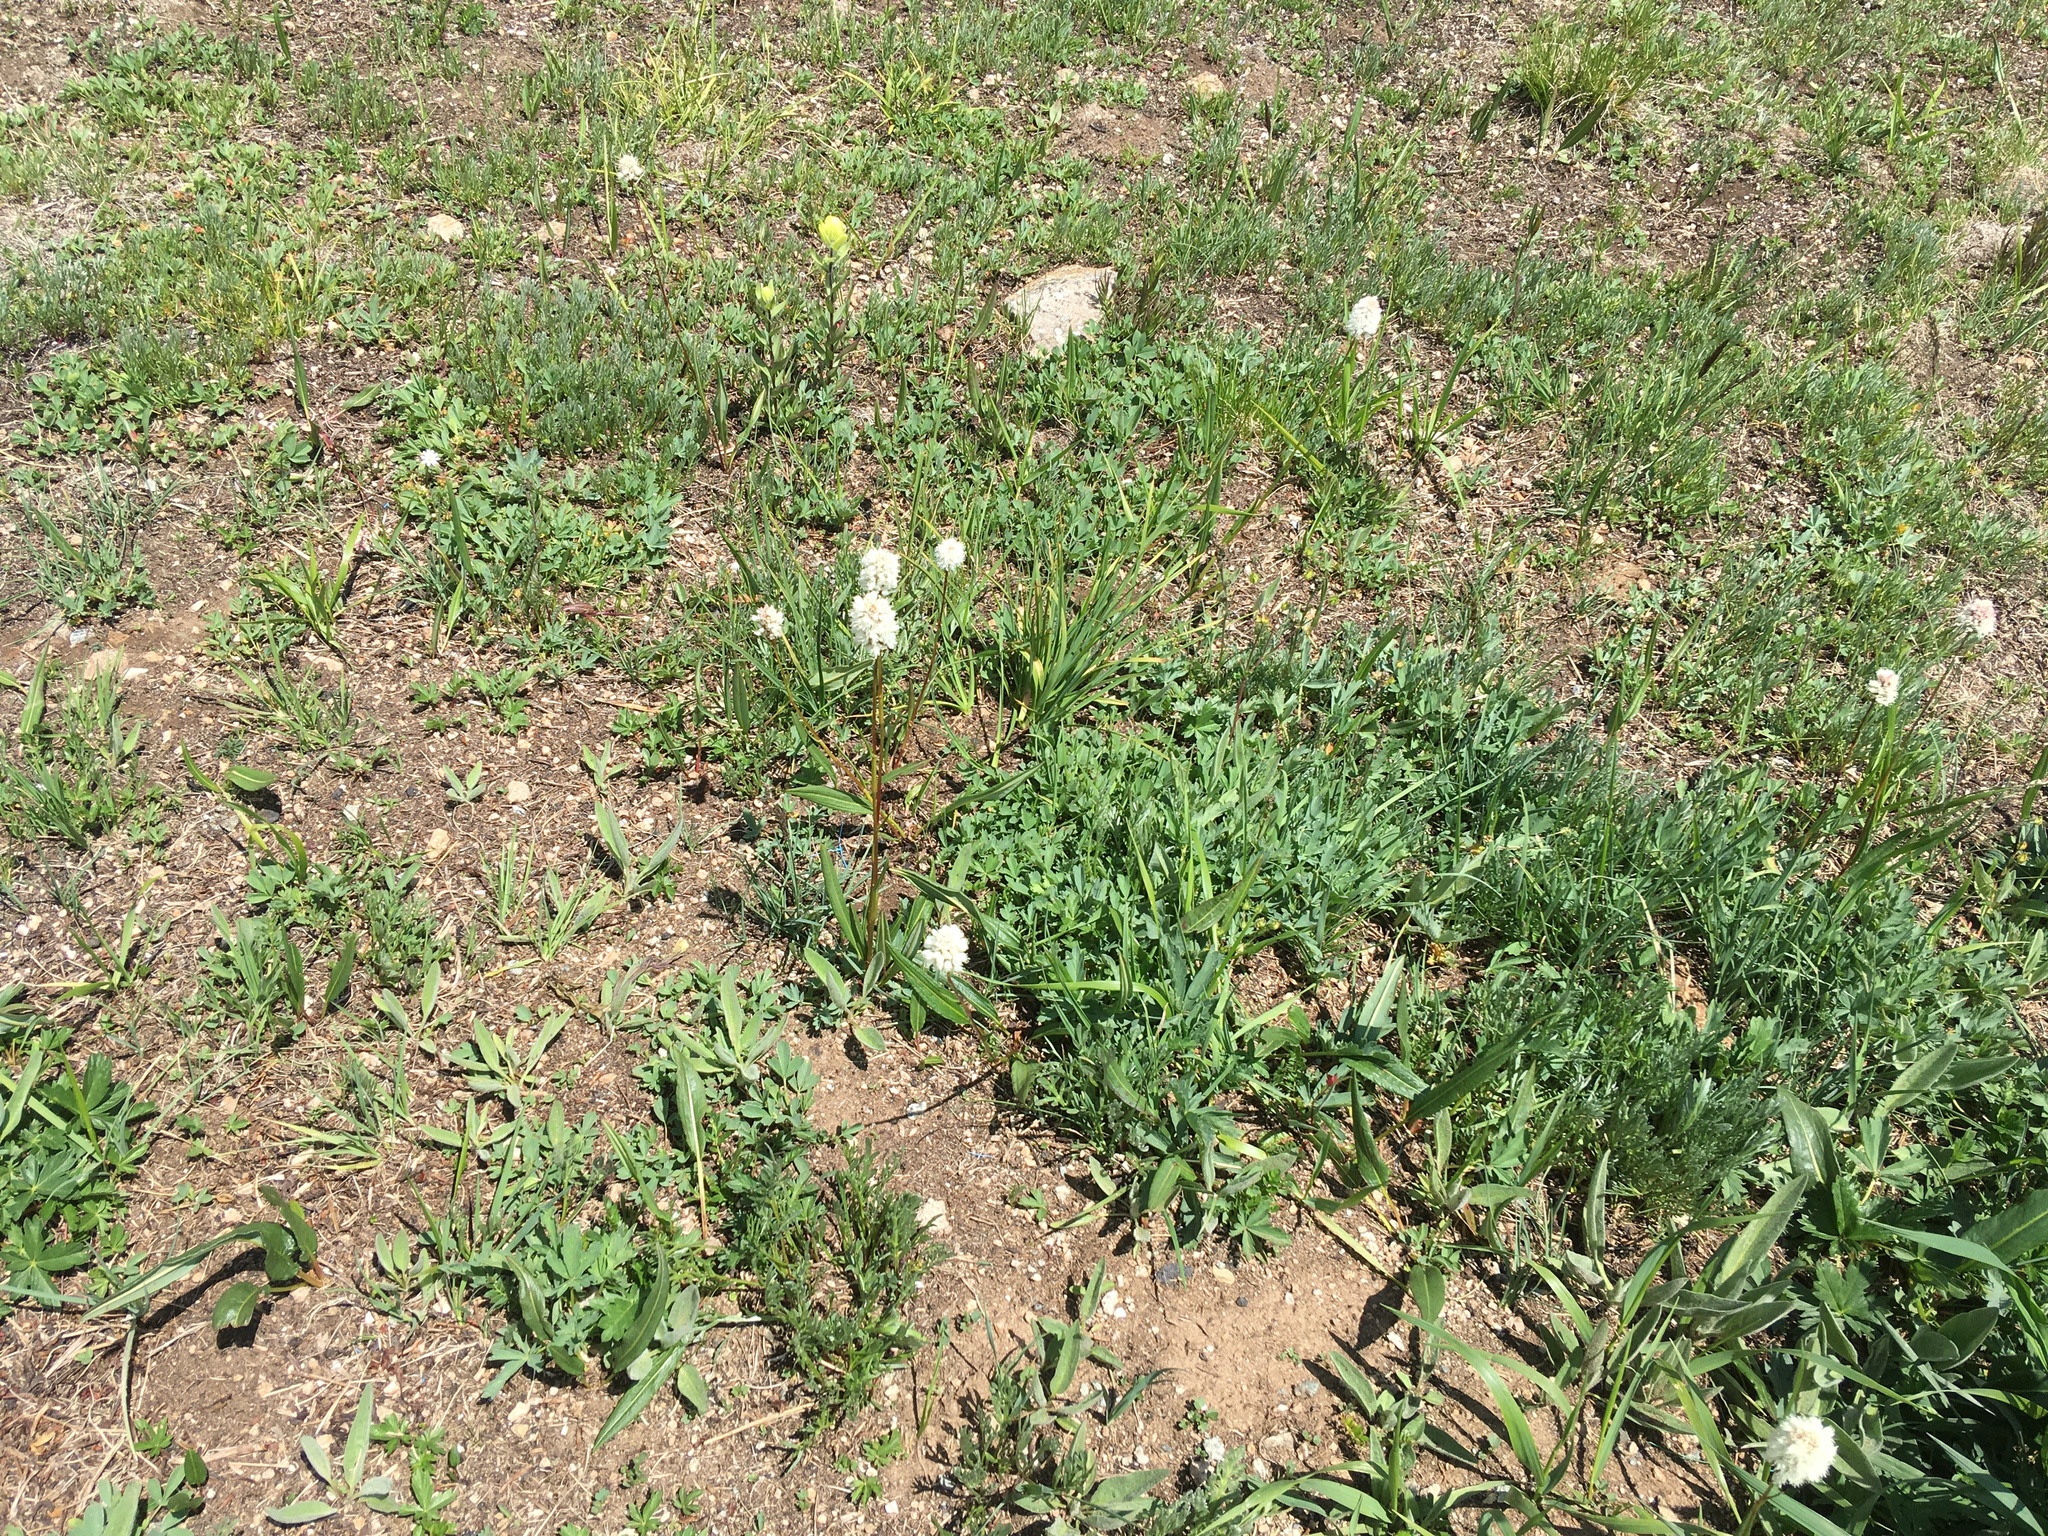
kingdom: Plantae
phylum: Tracheophyta
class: Magnoliopsida
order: Caryophyllales
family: Polygonaceae
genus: Bistorta
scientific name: Bistorta bistortoides
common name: American bistort
